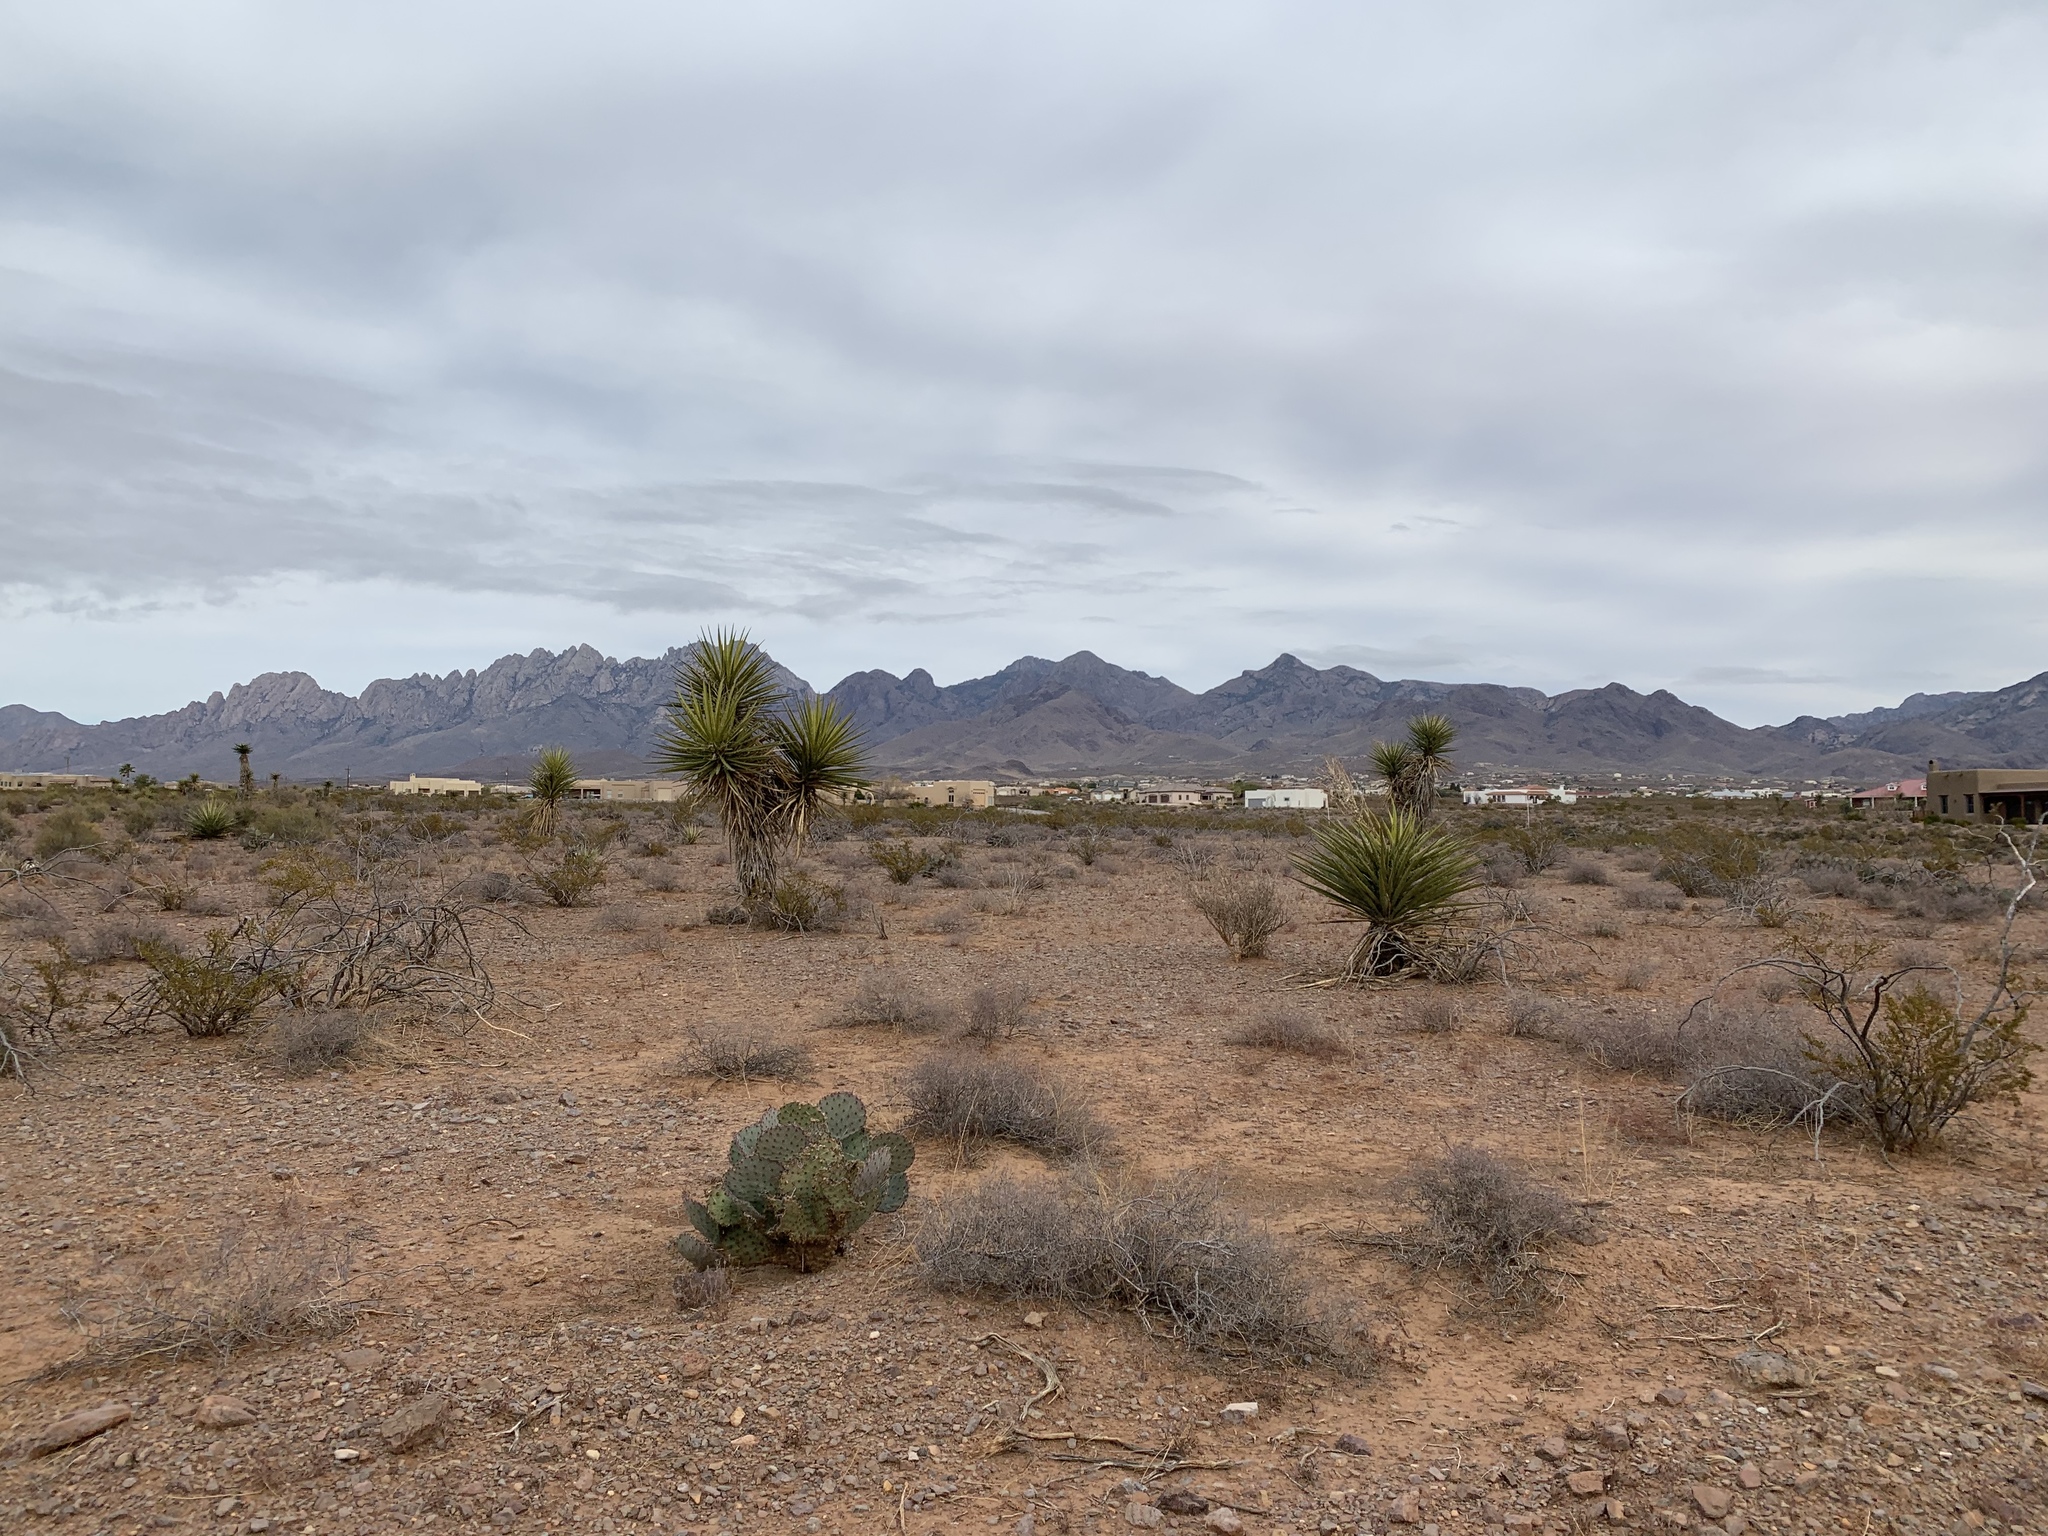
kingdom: Plantae
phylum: Tracheophyta
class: Liliopsida
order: Asparagales
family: Asparagaceae
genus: Yucca
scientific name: Yucca treculiana
